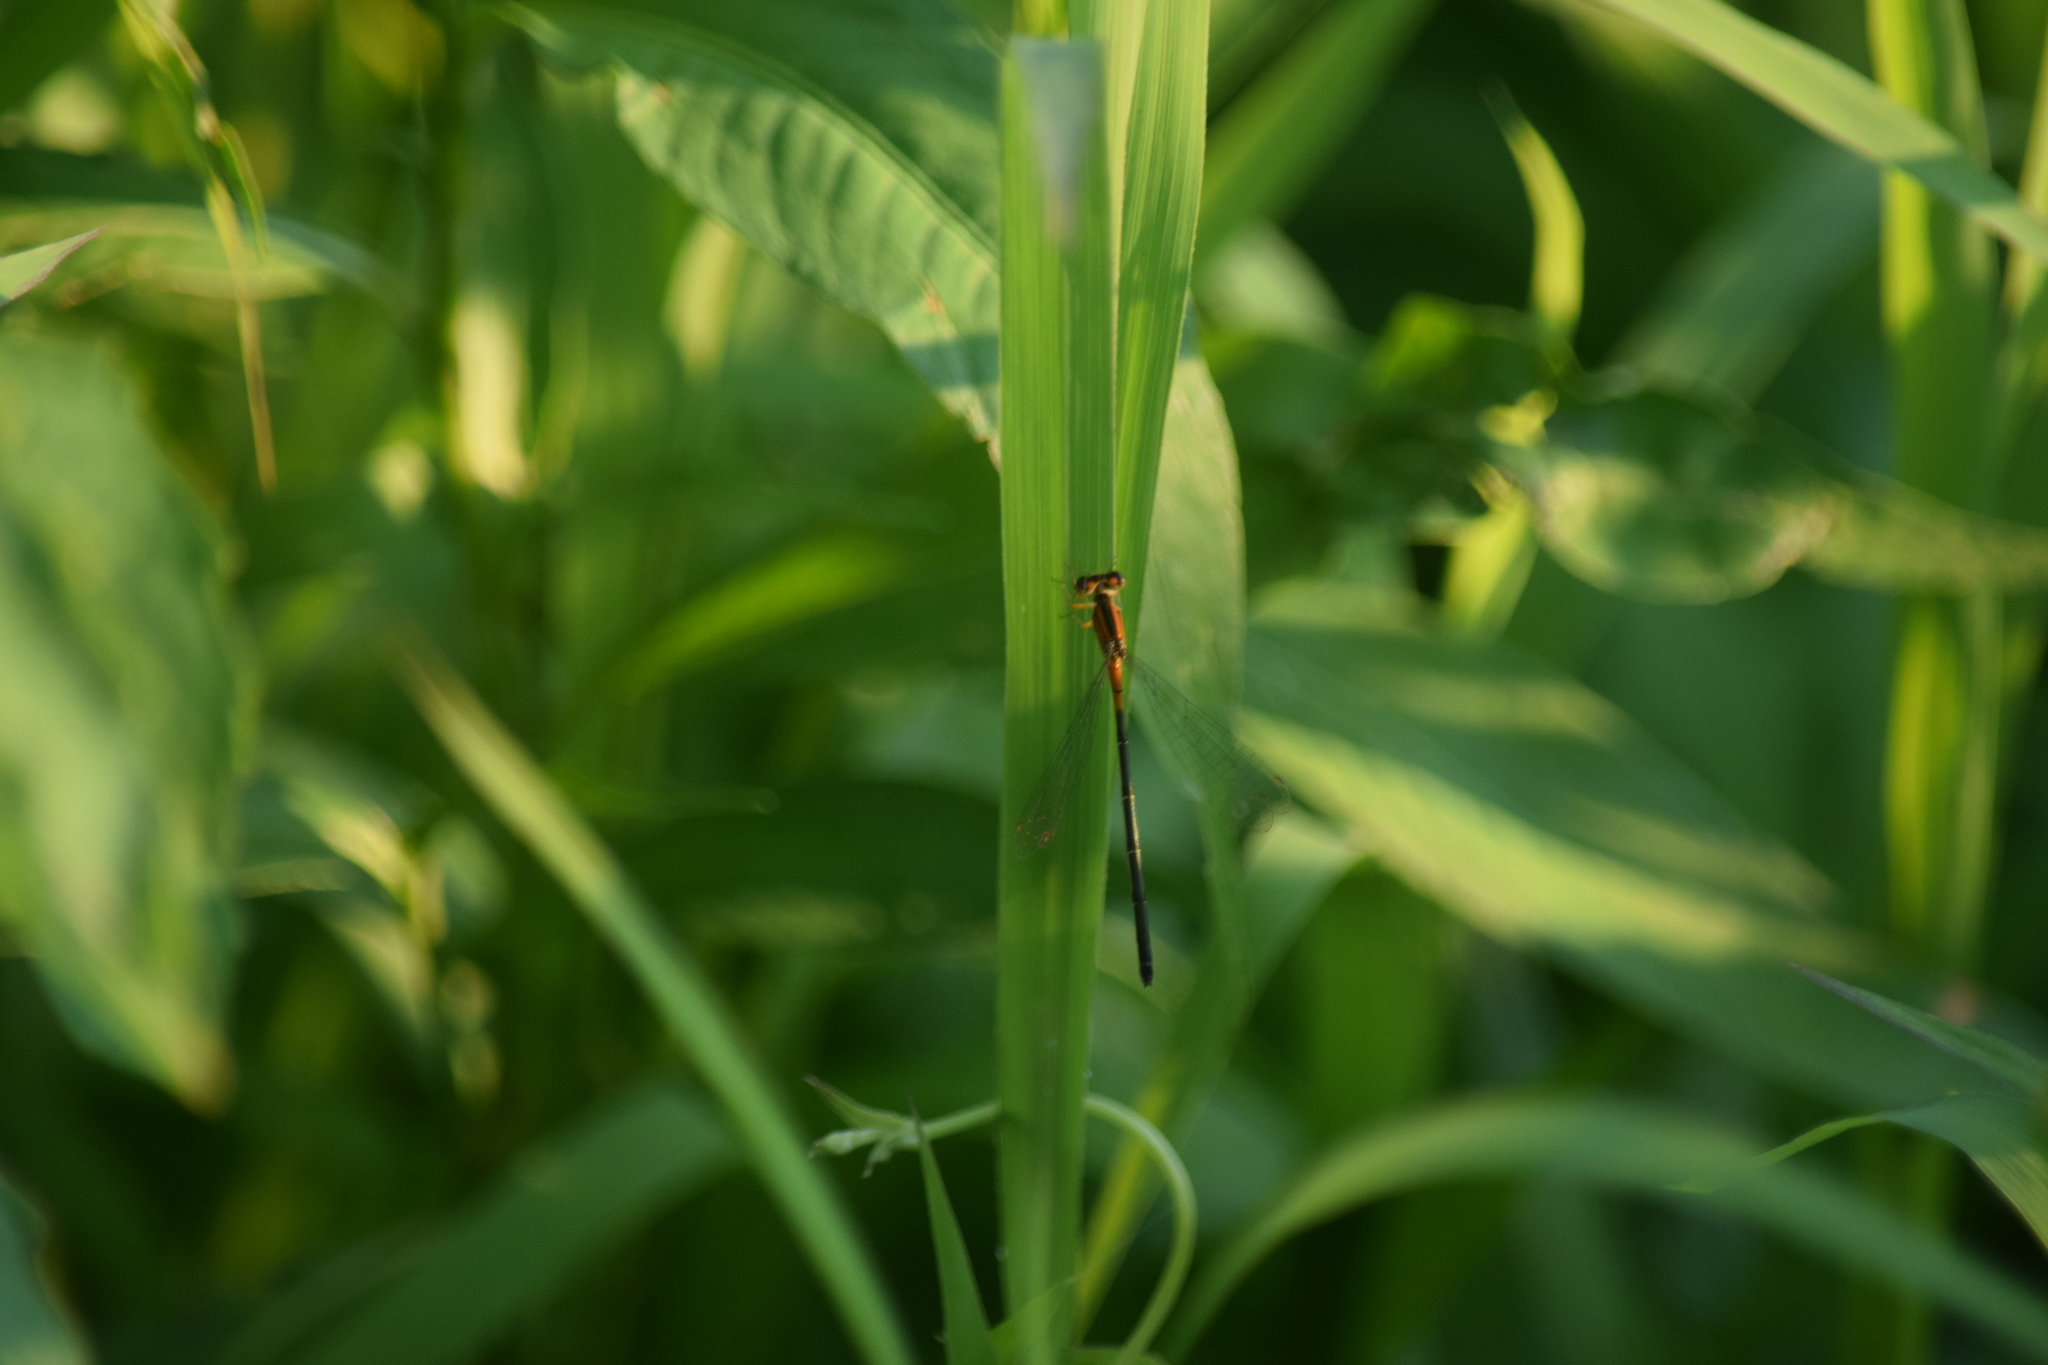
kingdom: Animalia
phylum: Arthropoda
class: Insecta
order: Odonata
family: Coenagrionidae
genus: Ischnura
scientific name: Ischnura ramburii
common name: Rambur's forktail
